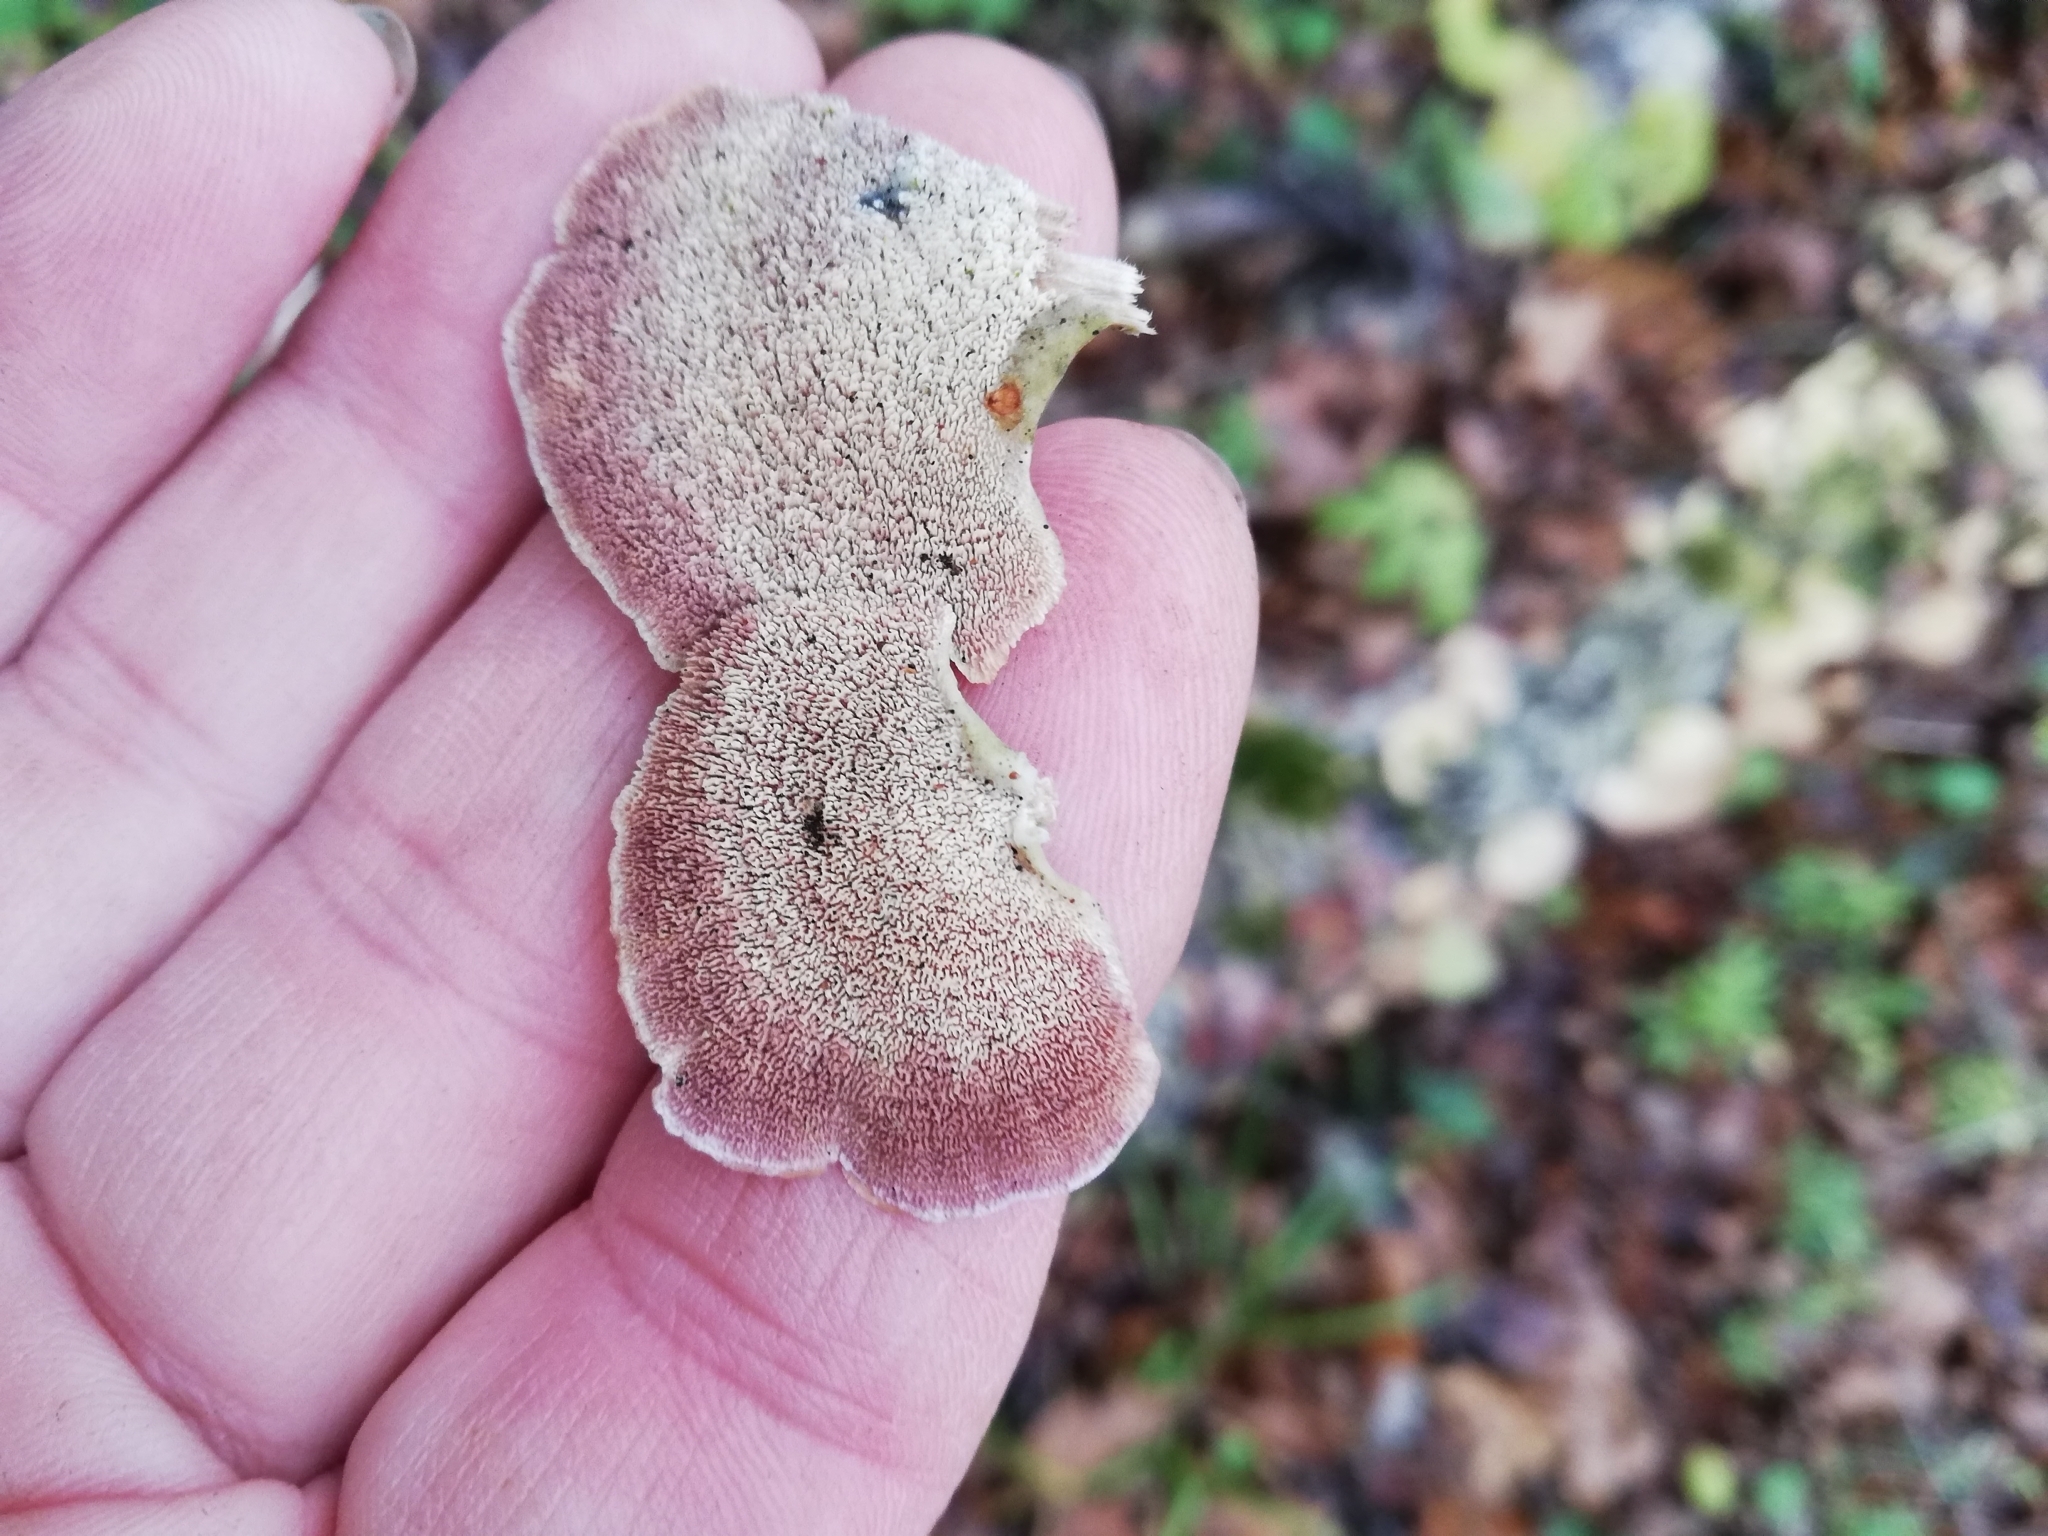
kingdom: Fungi
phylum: Basidiomycota
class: Agaricomycetes
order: Hymenochaetales
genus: Trichaptum
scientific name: Trichaptum biforme
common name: Violet-toothed polypore
